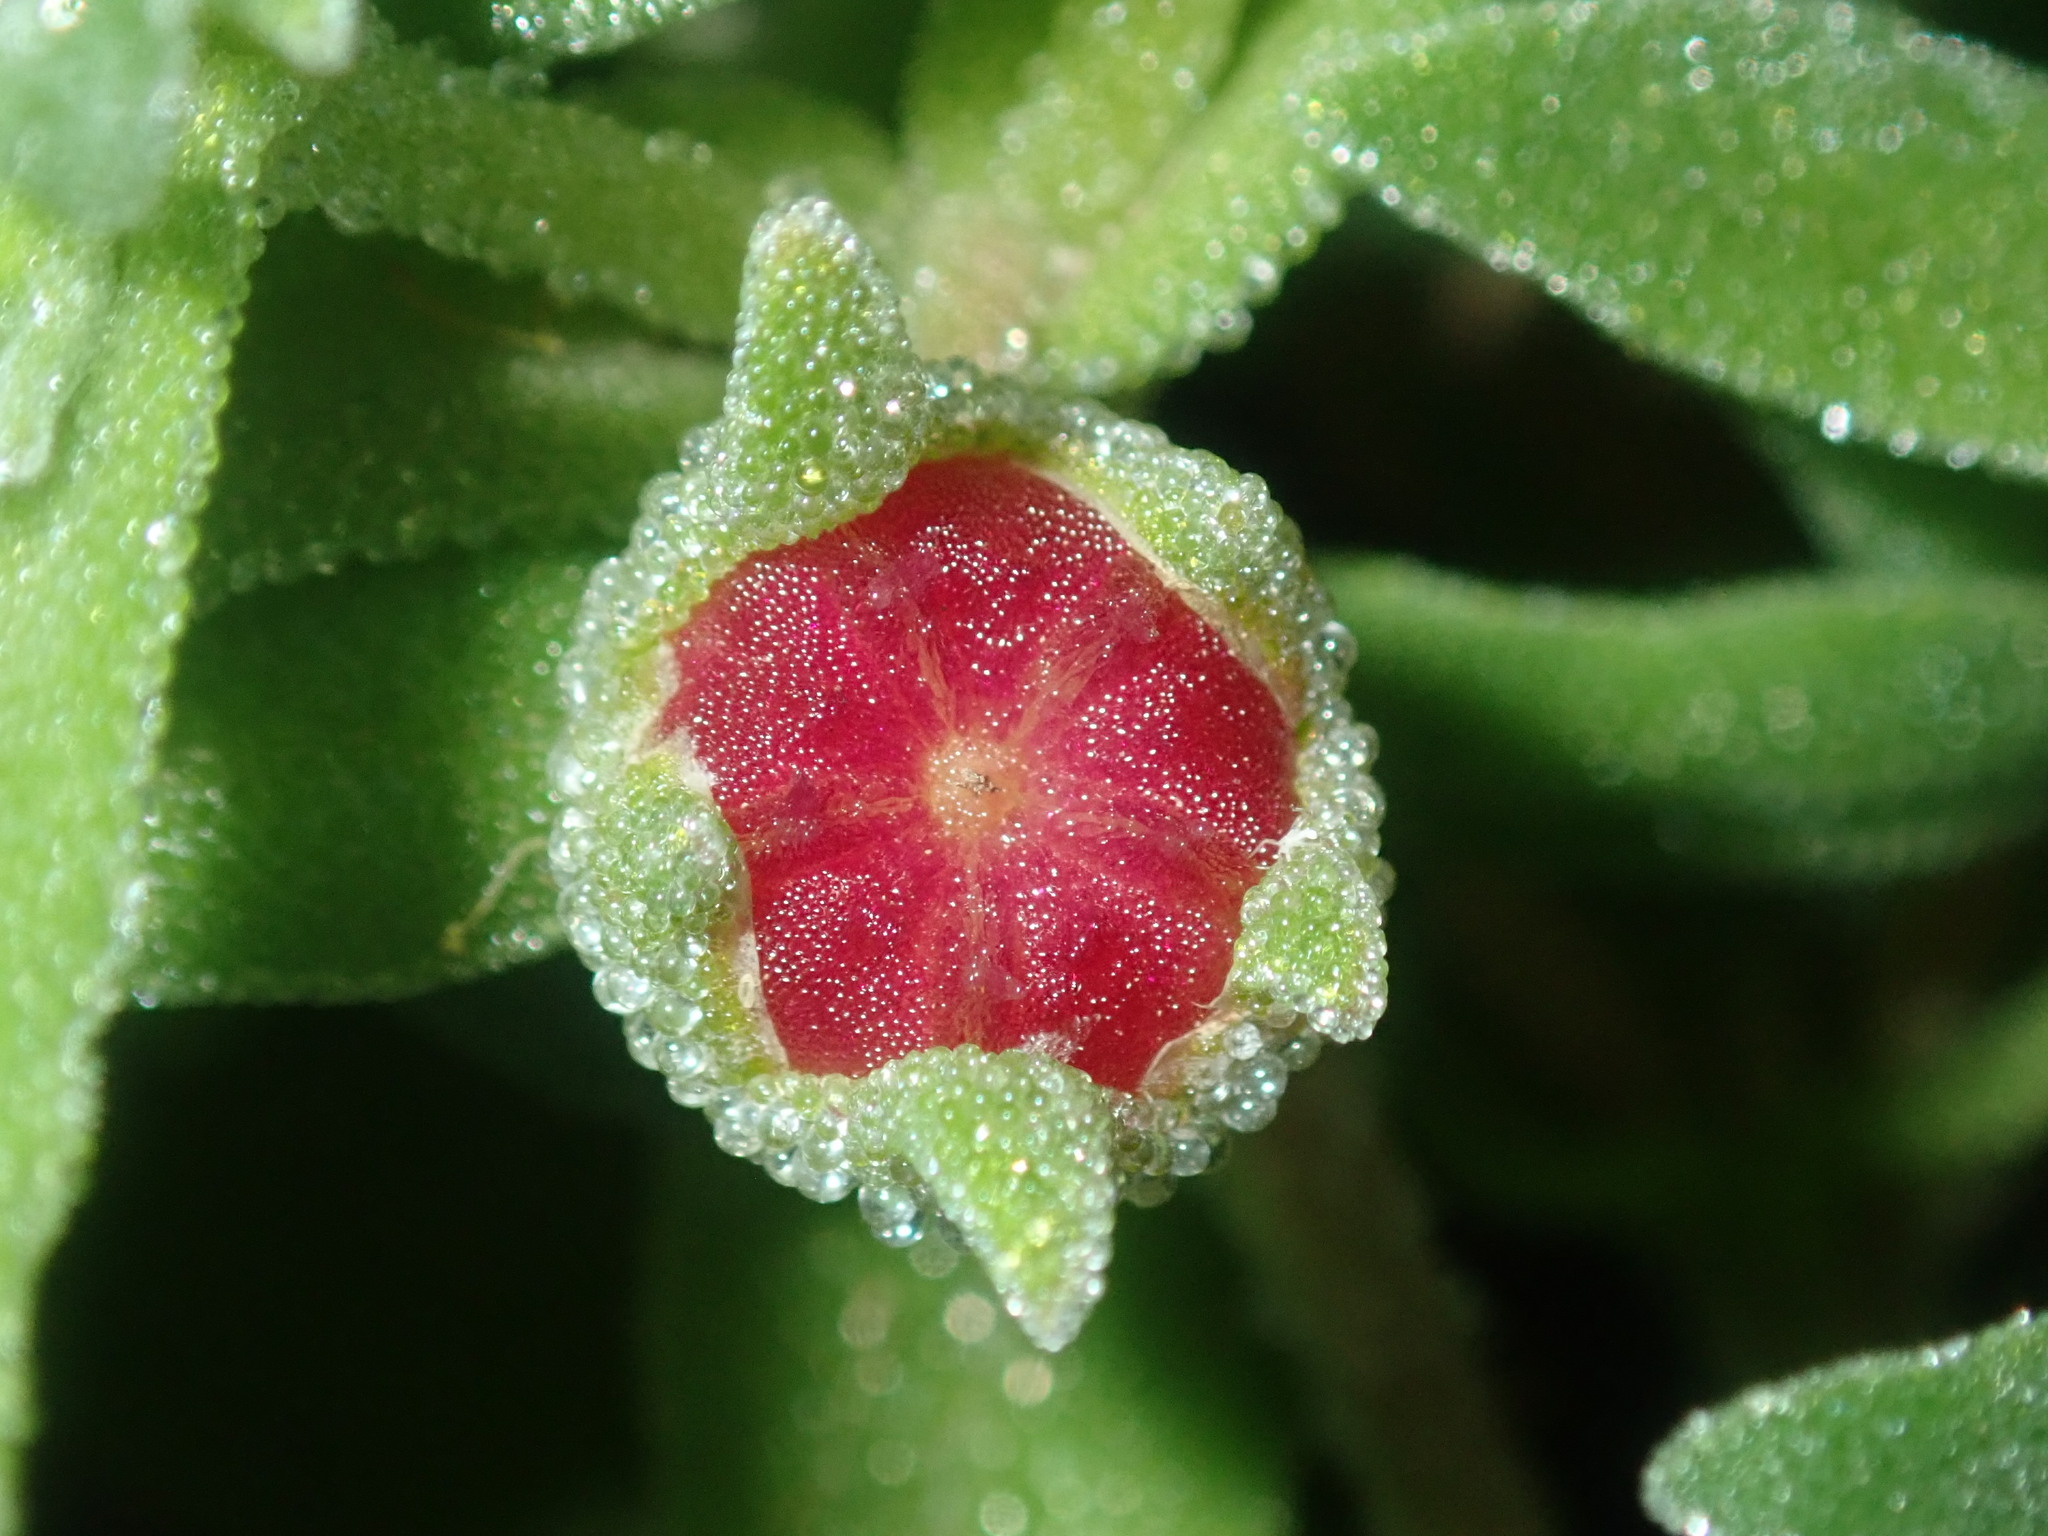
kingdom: Plantae
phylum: Tracheophyta
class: Magnoliopsida
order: Caryophyllales
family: Aizoaceae
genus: Cleretum
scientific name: Cleretum papulosum
